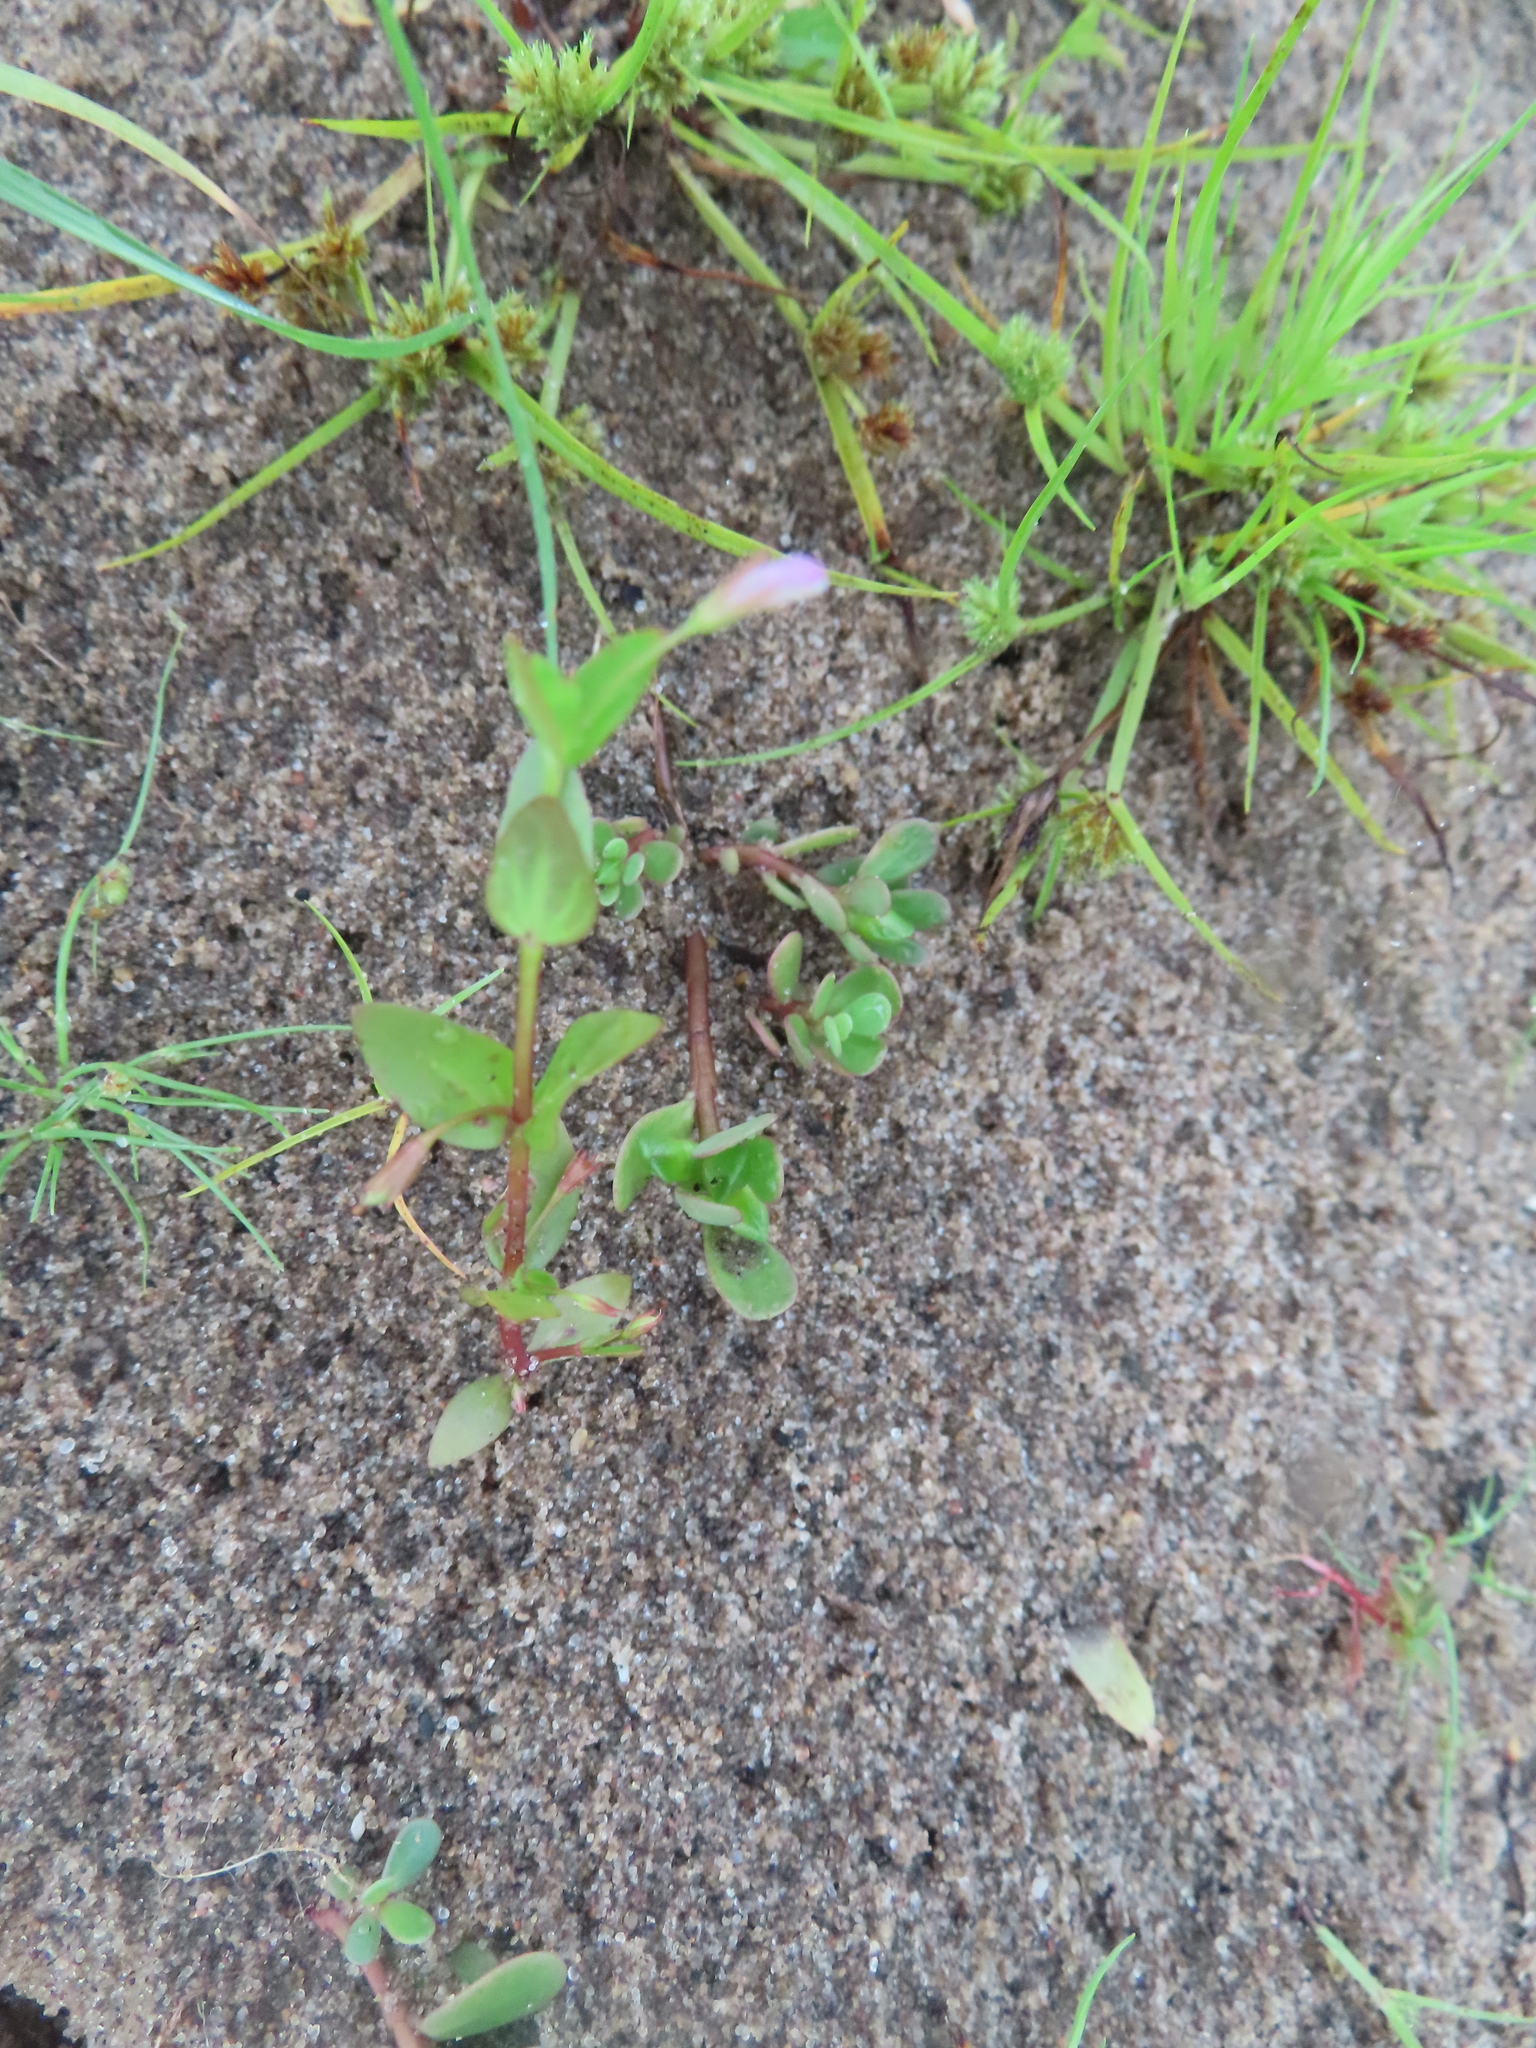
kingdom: Plantae
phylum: Tracheophyta
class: Magnoliopsida
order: Lamiales
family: Linderniaceae
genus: Lindernia
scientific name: Lindernia dubia
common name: Annual false pimpernel
